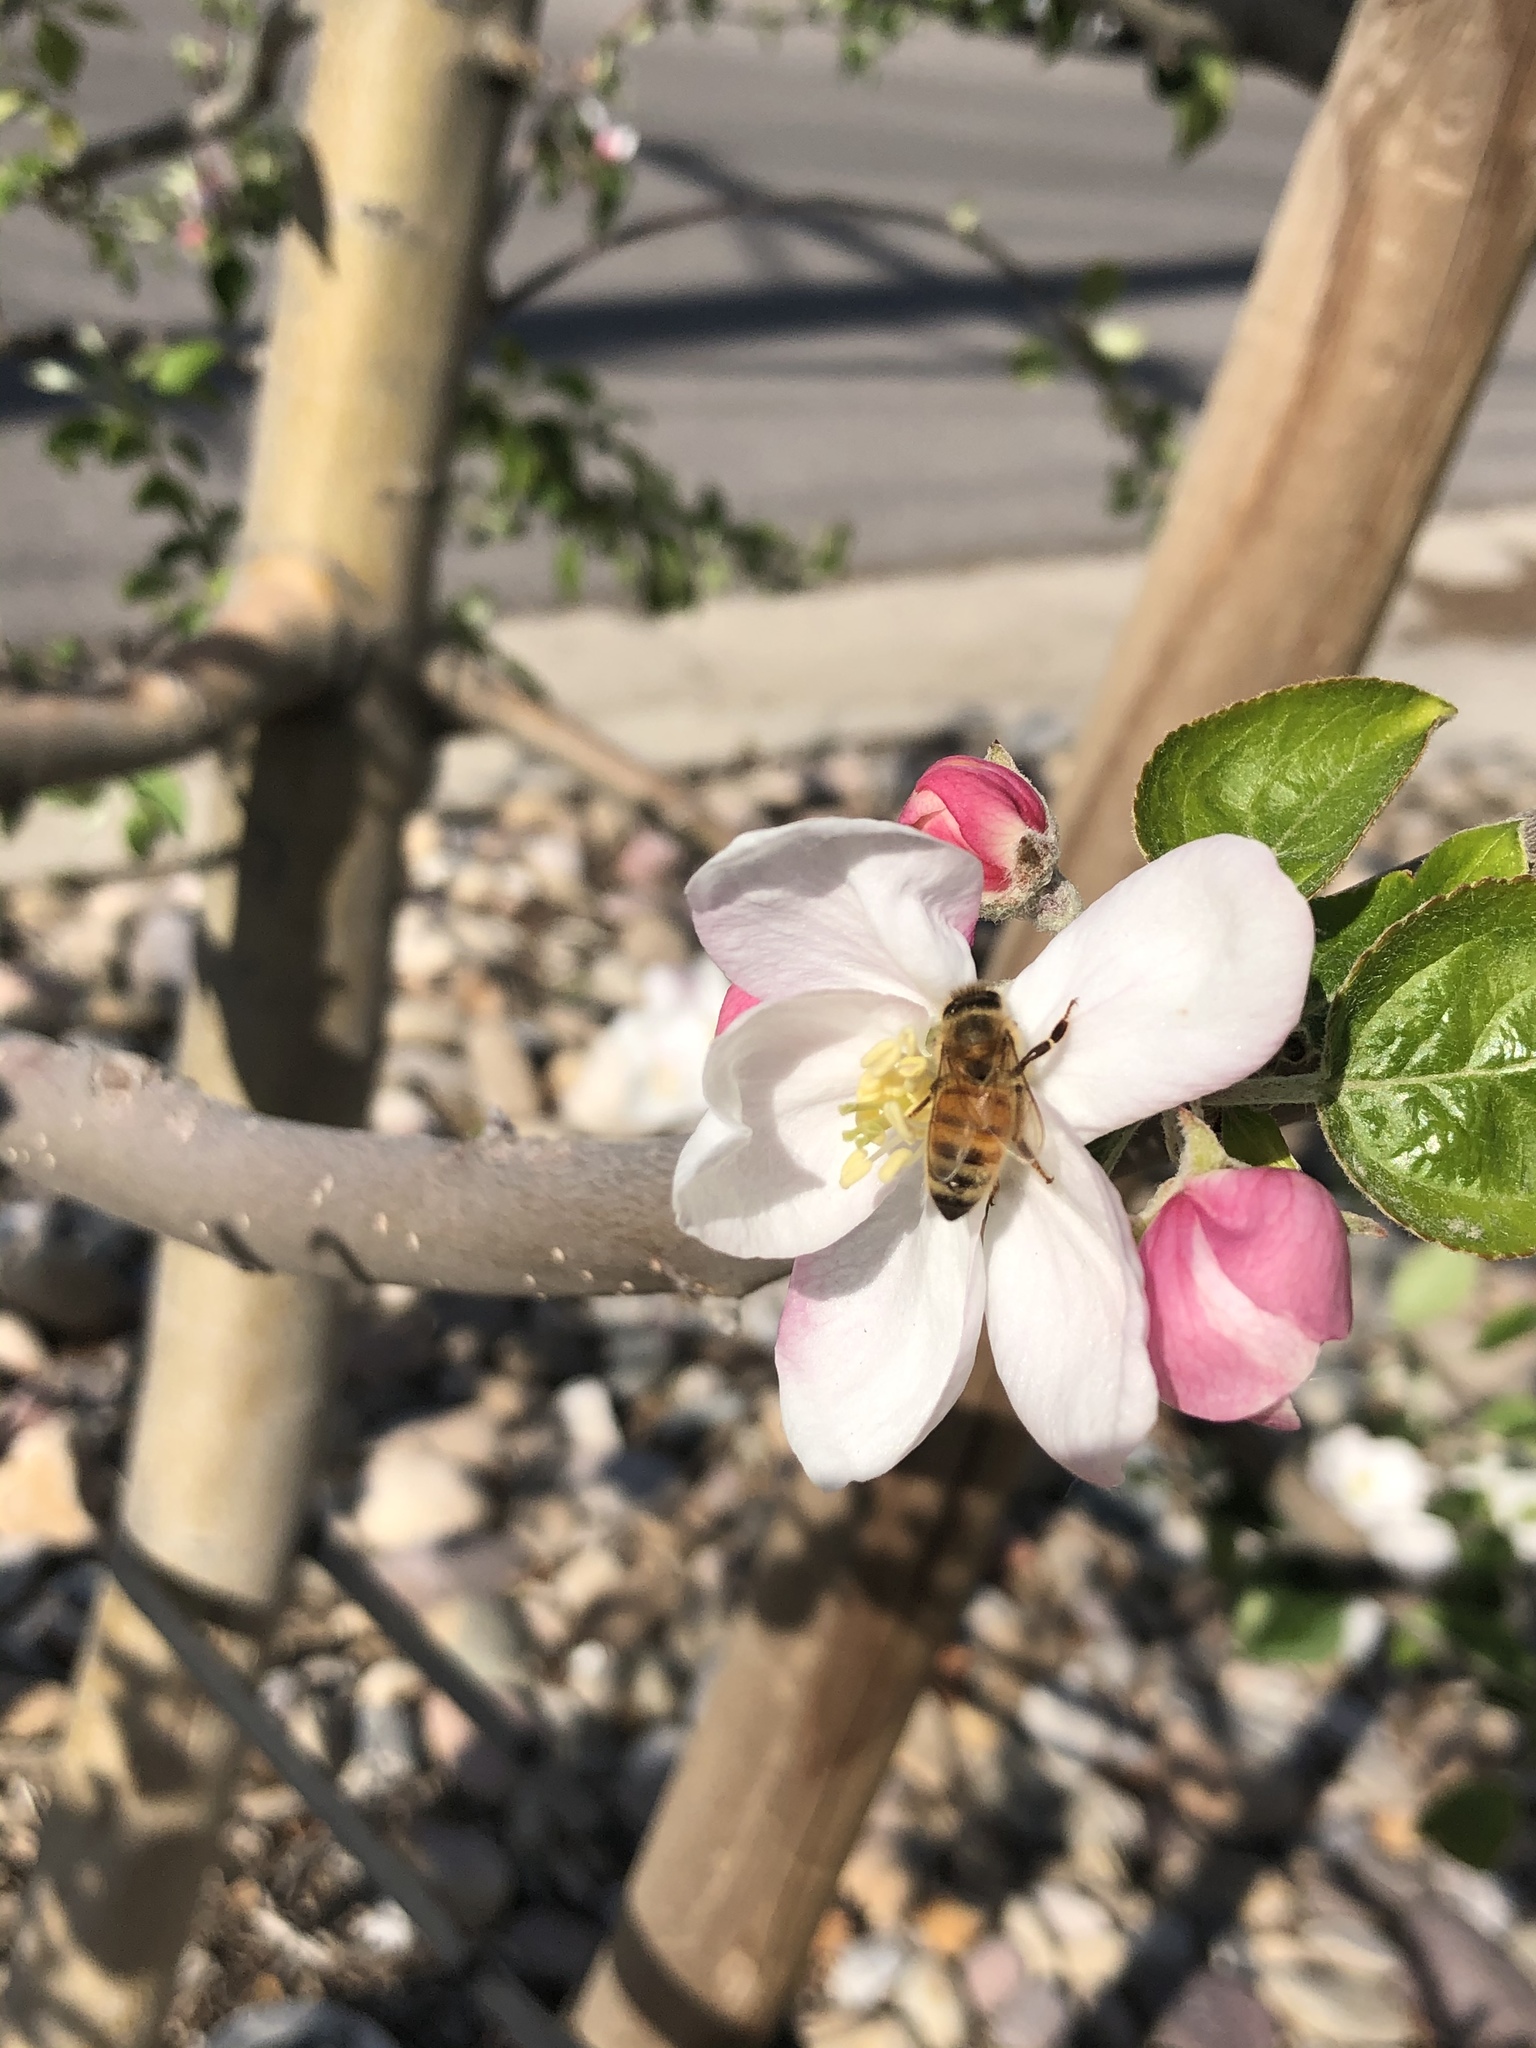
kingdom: Animalia
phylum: Arthropoda
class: Insecta
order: Hymenoptera
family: Apidae
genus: Apis
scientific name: Apis mellifera
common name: Honey bee
